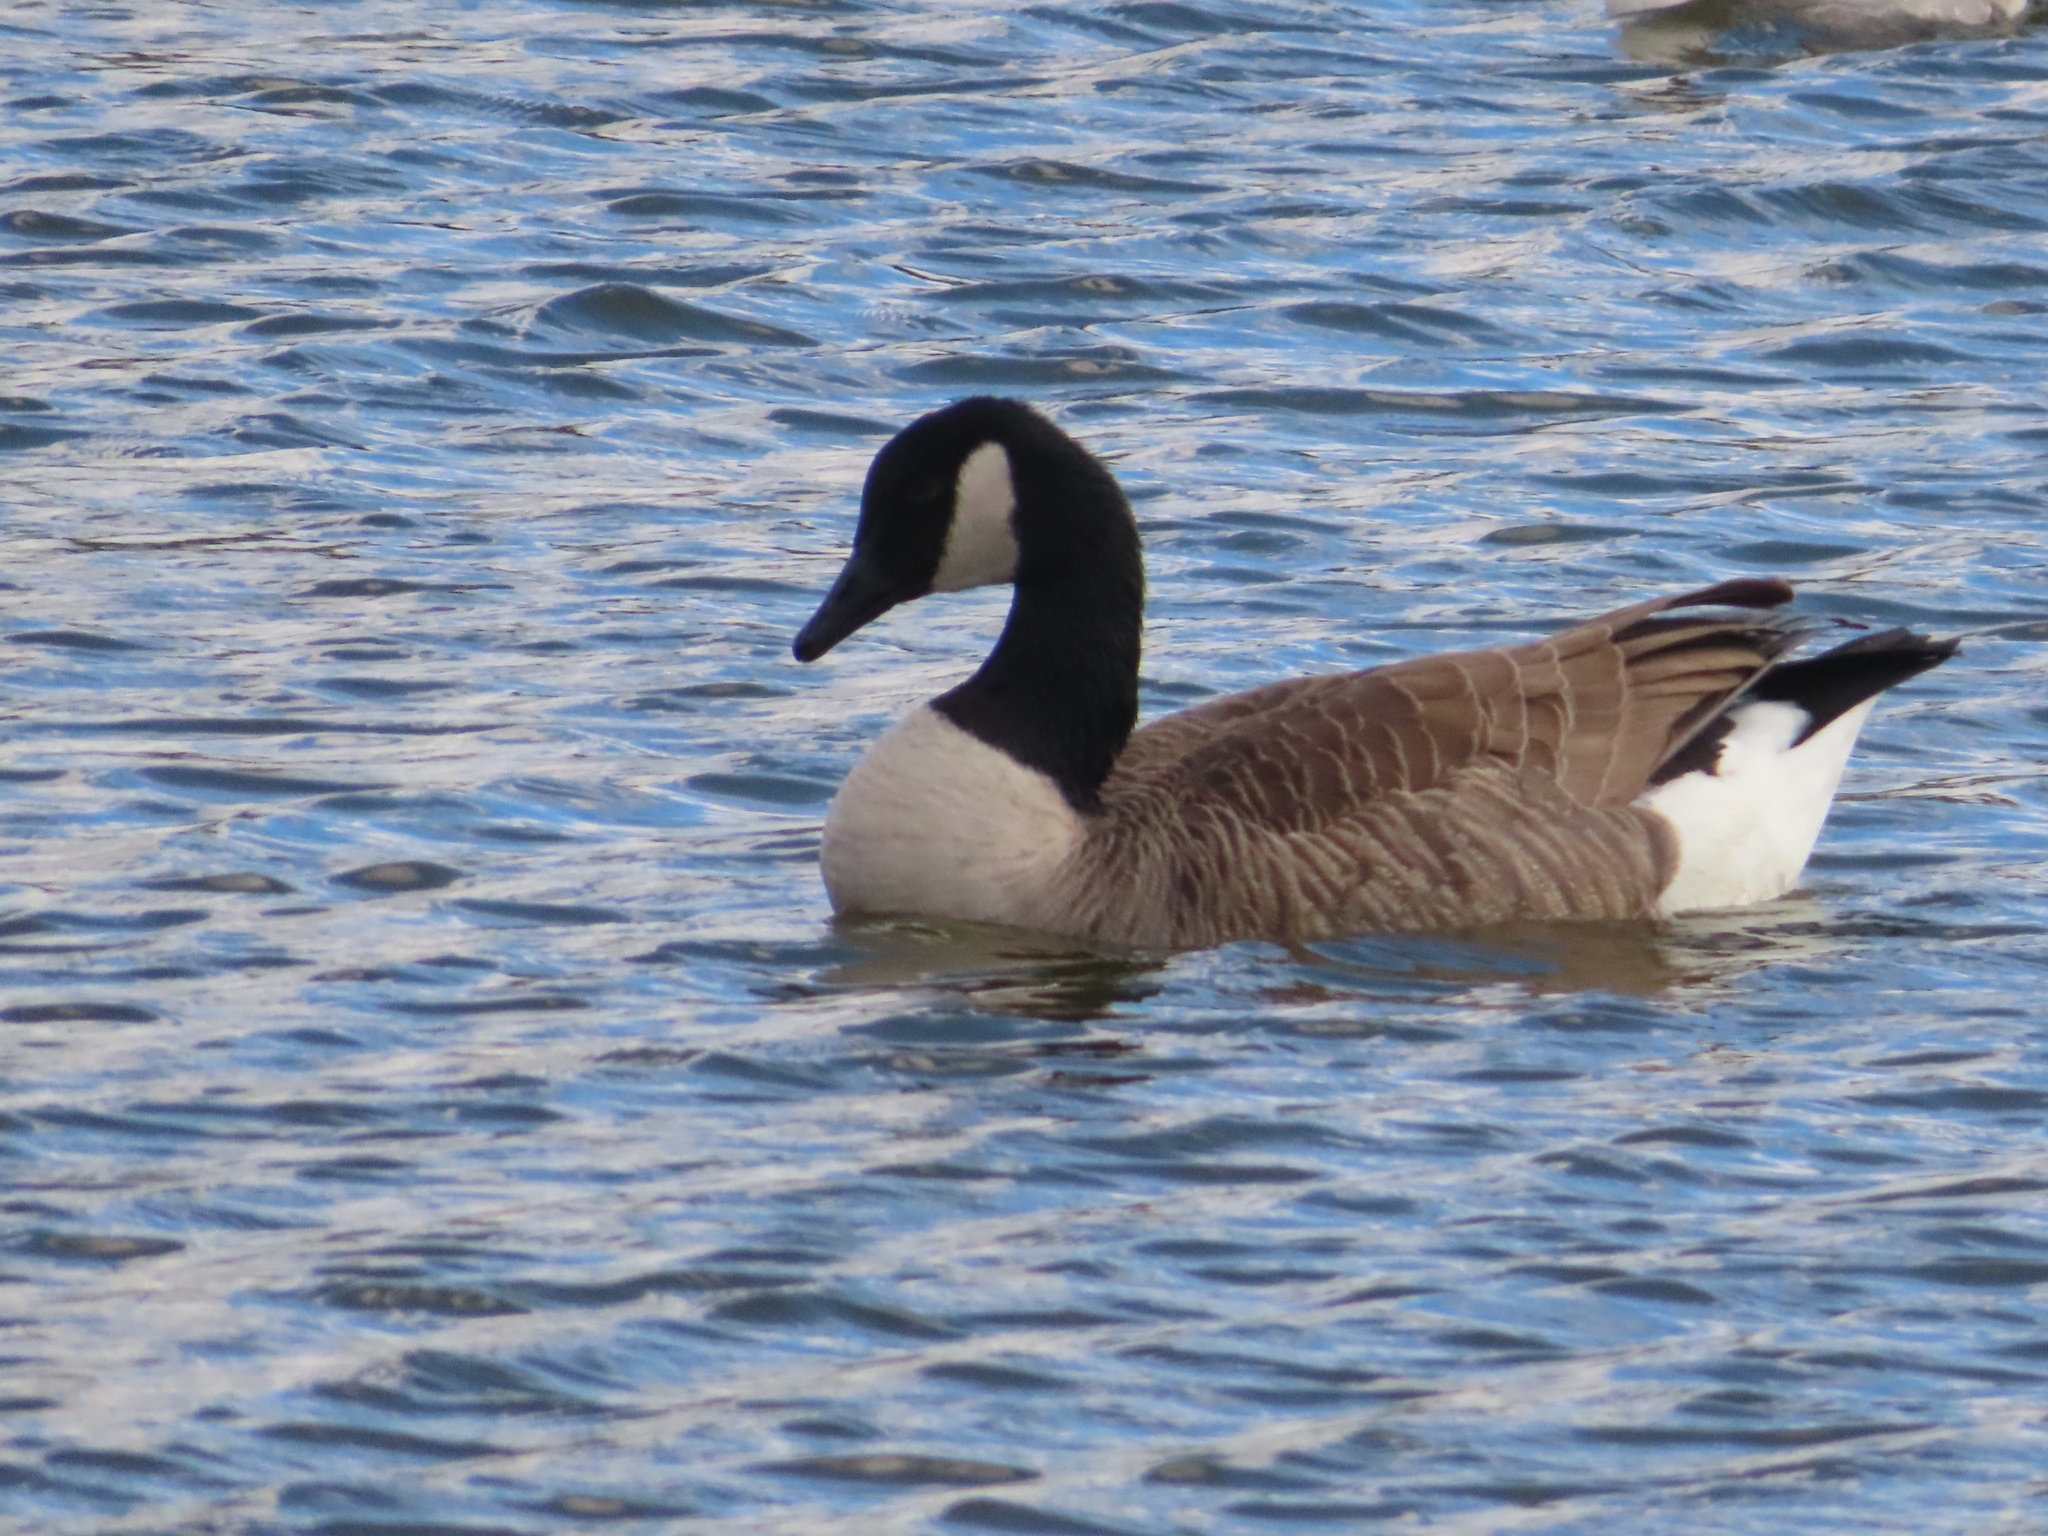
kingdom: Animalia
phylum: Chordata
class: Aves
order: Anseriformes
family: Anatidae
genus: Branta
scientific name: Branta canadensis
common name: Canada goose
